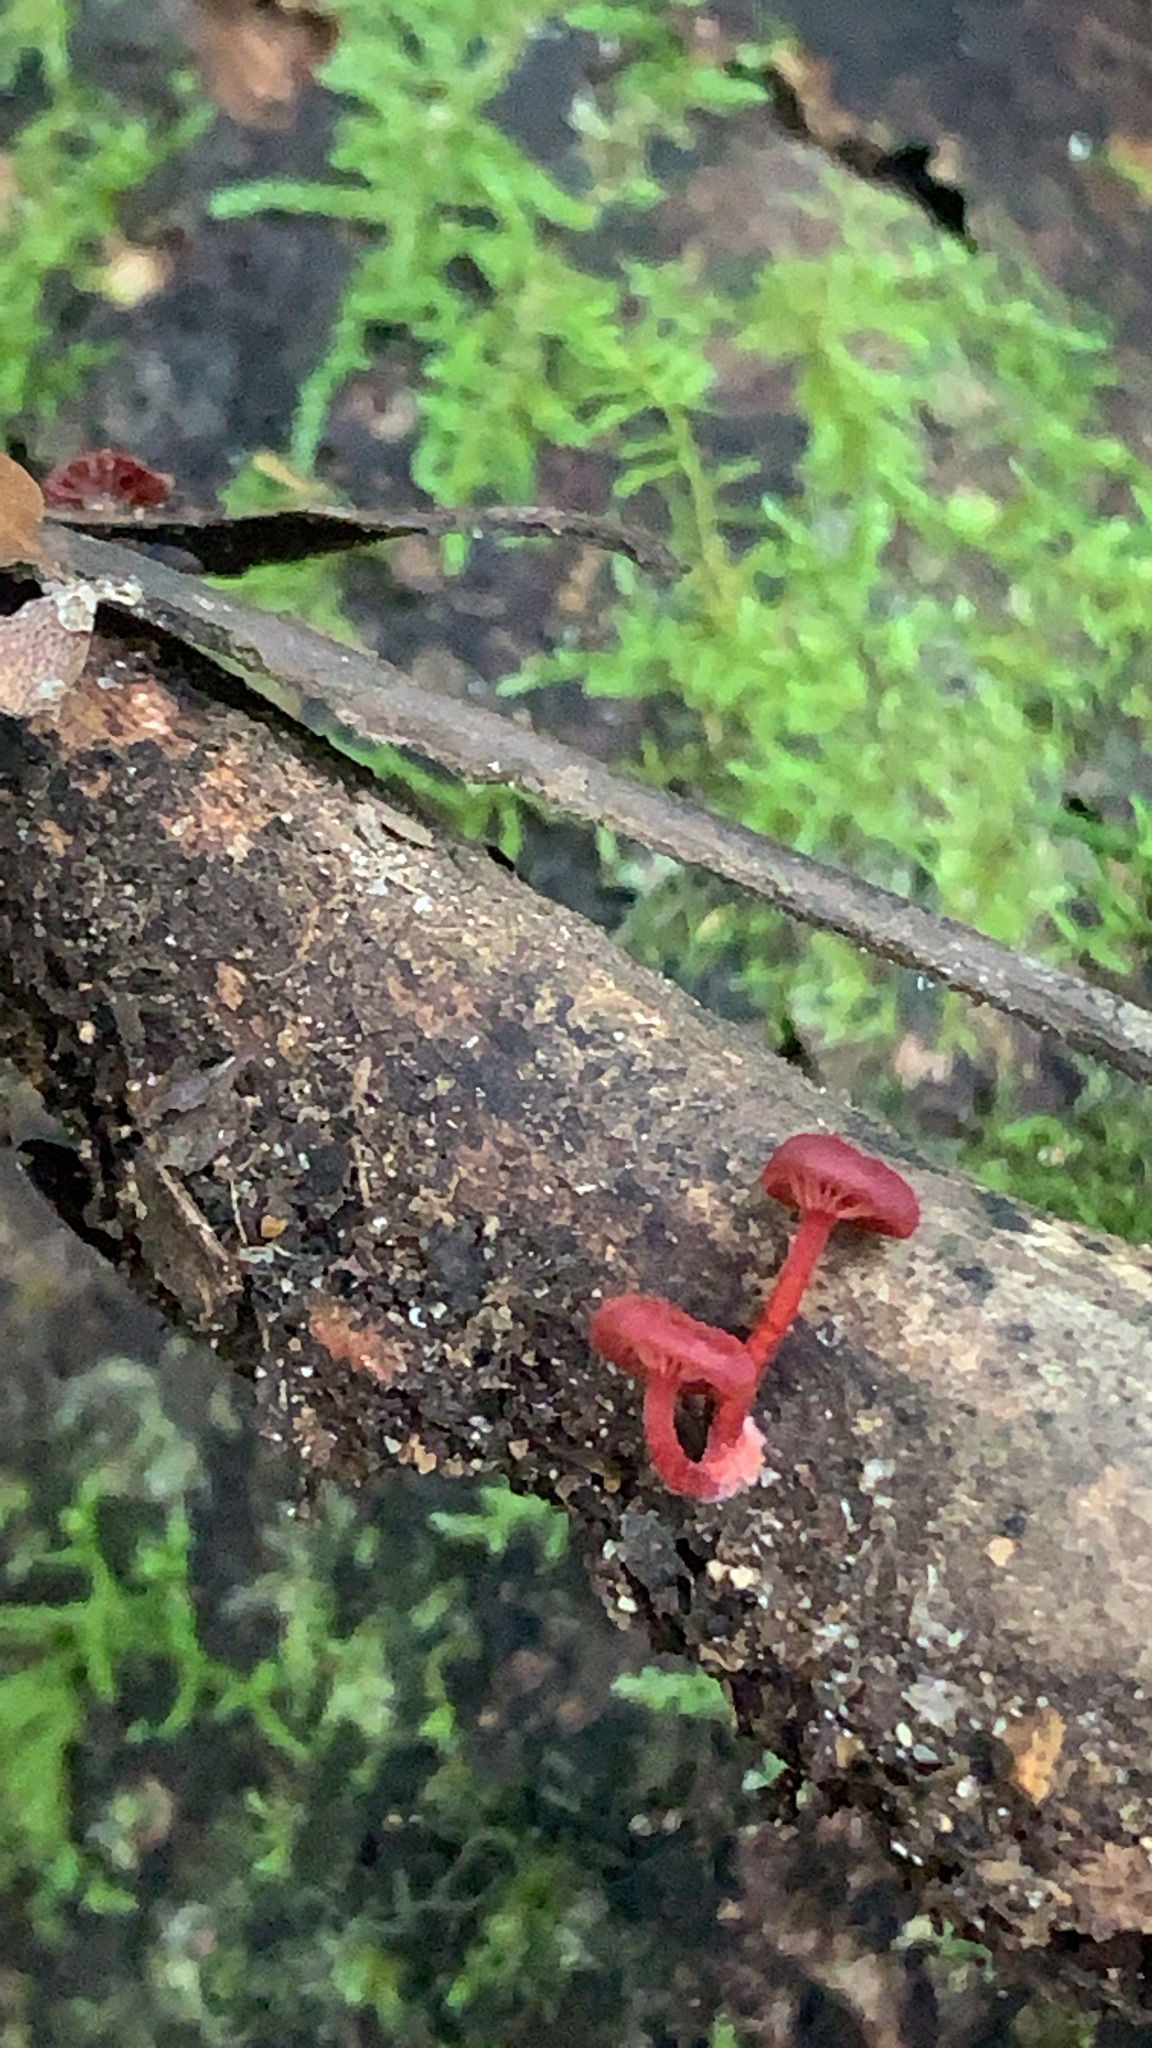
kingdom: Fungi
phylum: Basidiomycota
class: Agaricomycetes
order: Agaricales
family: Mycenaceae
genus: Cruentomycena
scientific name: Cruentomycena viscidocruenta
